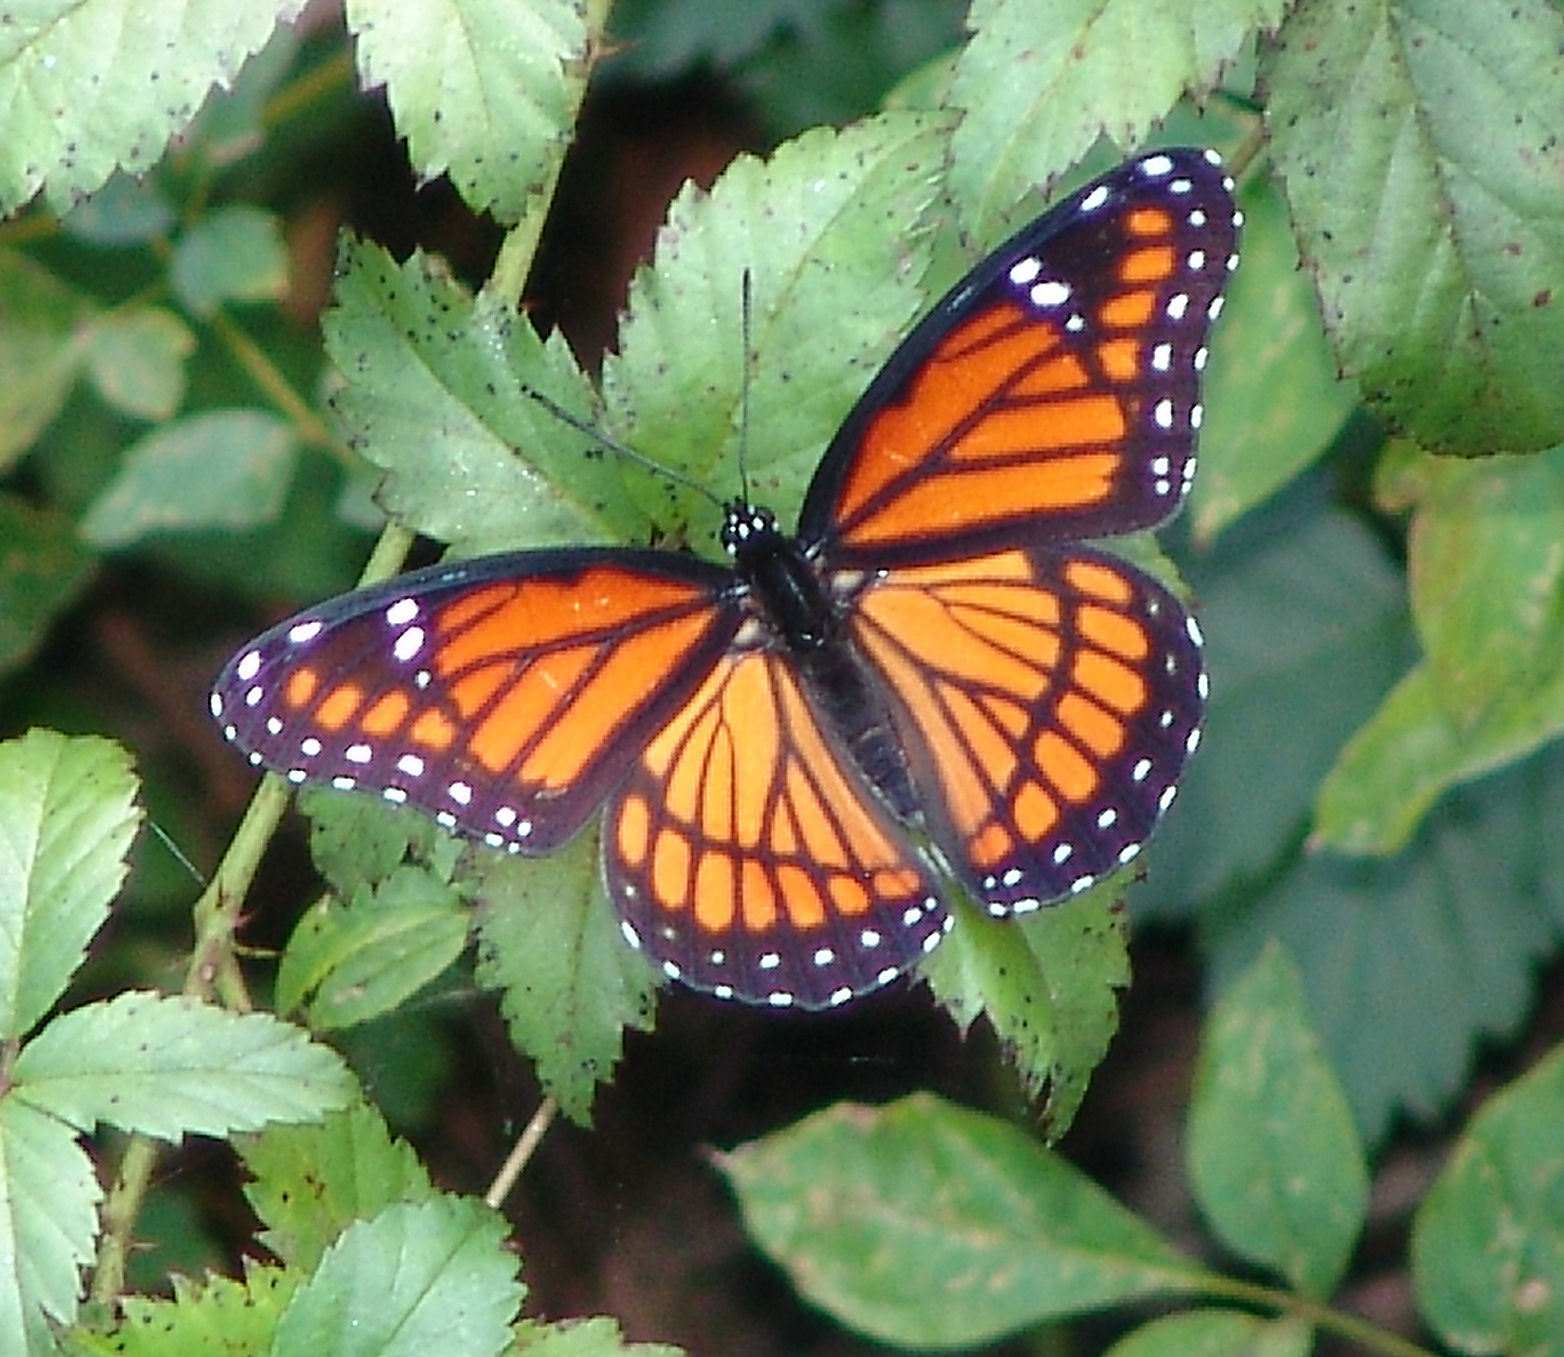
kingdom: Animalia
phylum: Arthropoda
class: Insecta
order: Lepidoptera
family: Nymphalidae
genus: Limenitis
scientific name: Limenitis archippus
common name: Viceroy
